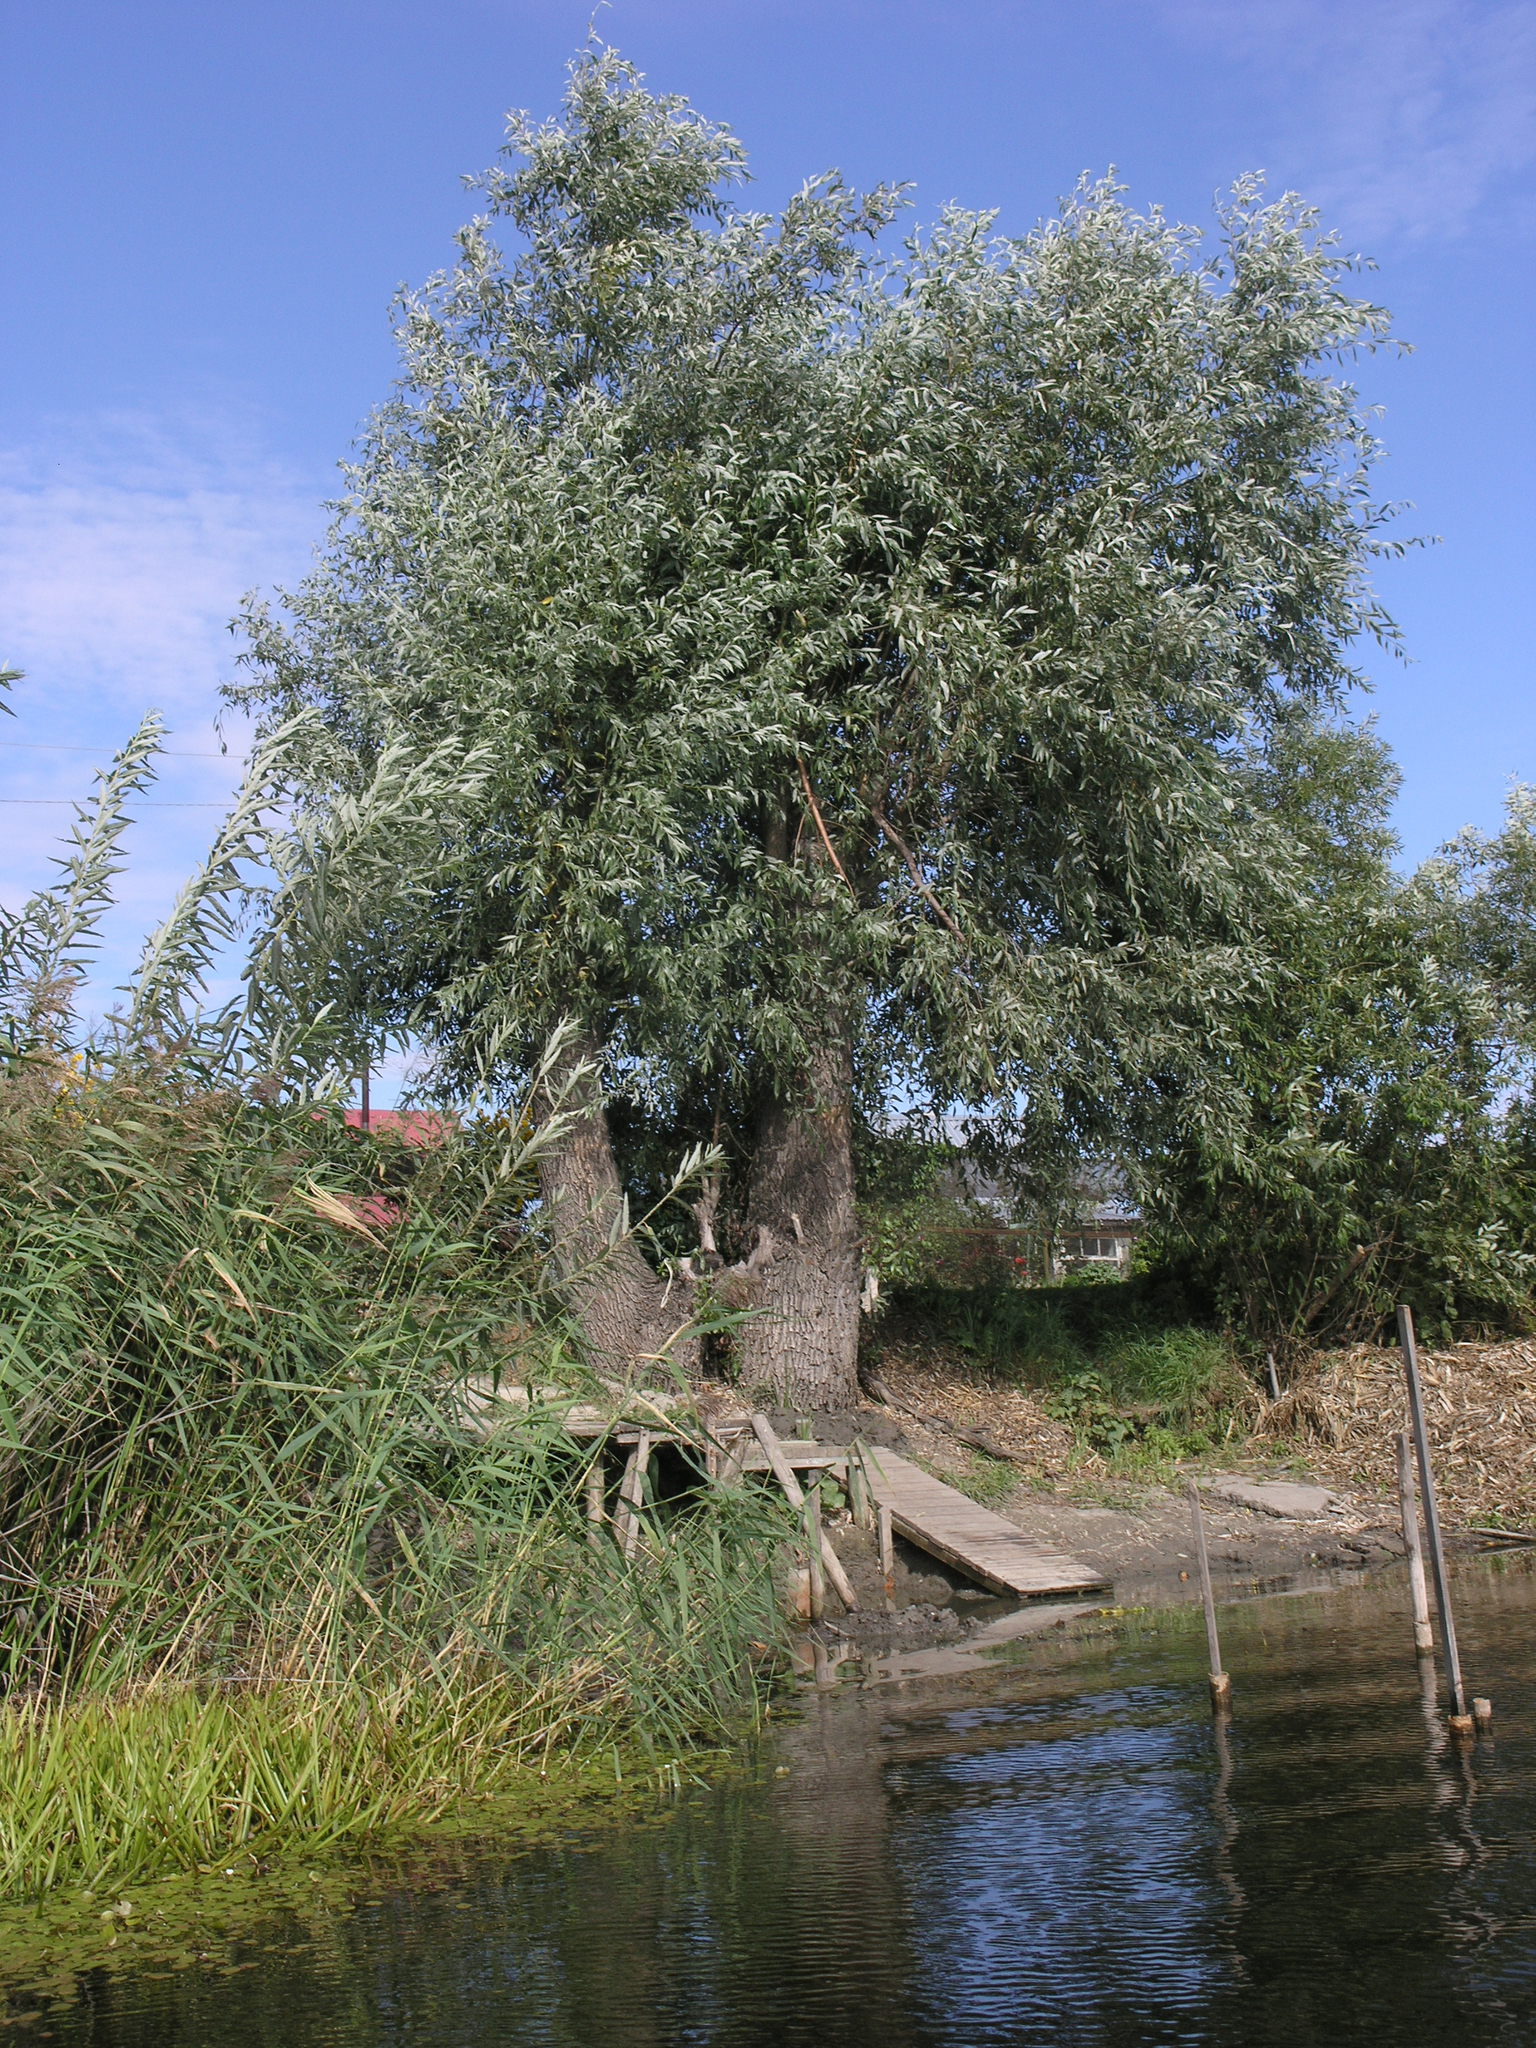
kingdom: Plantae
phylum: Tracheophyta
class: Magnoliopsida
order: Malpighiales
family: Salicaceae
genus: Salix
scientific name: Salix alba
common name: White willow
